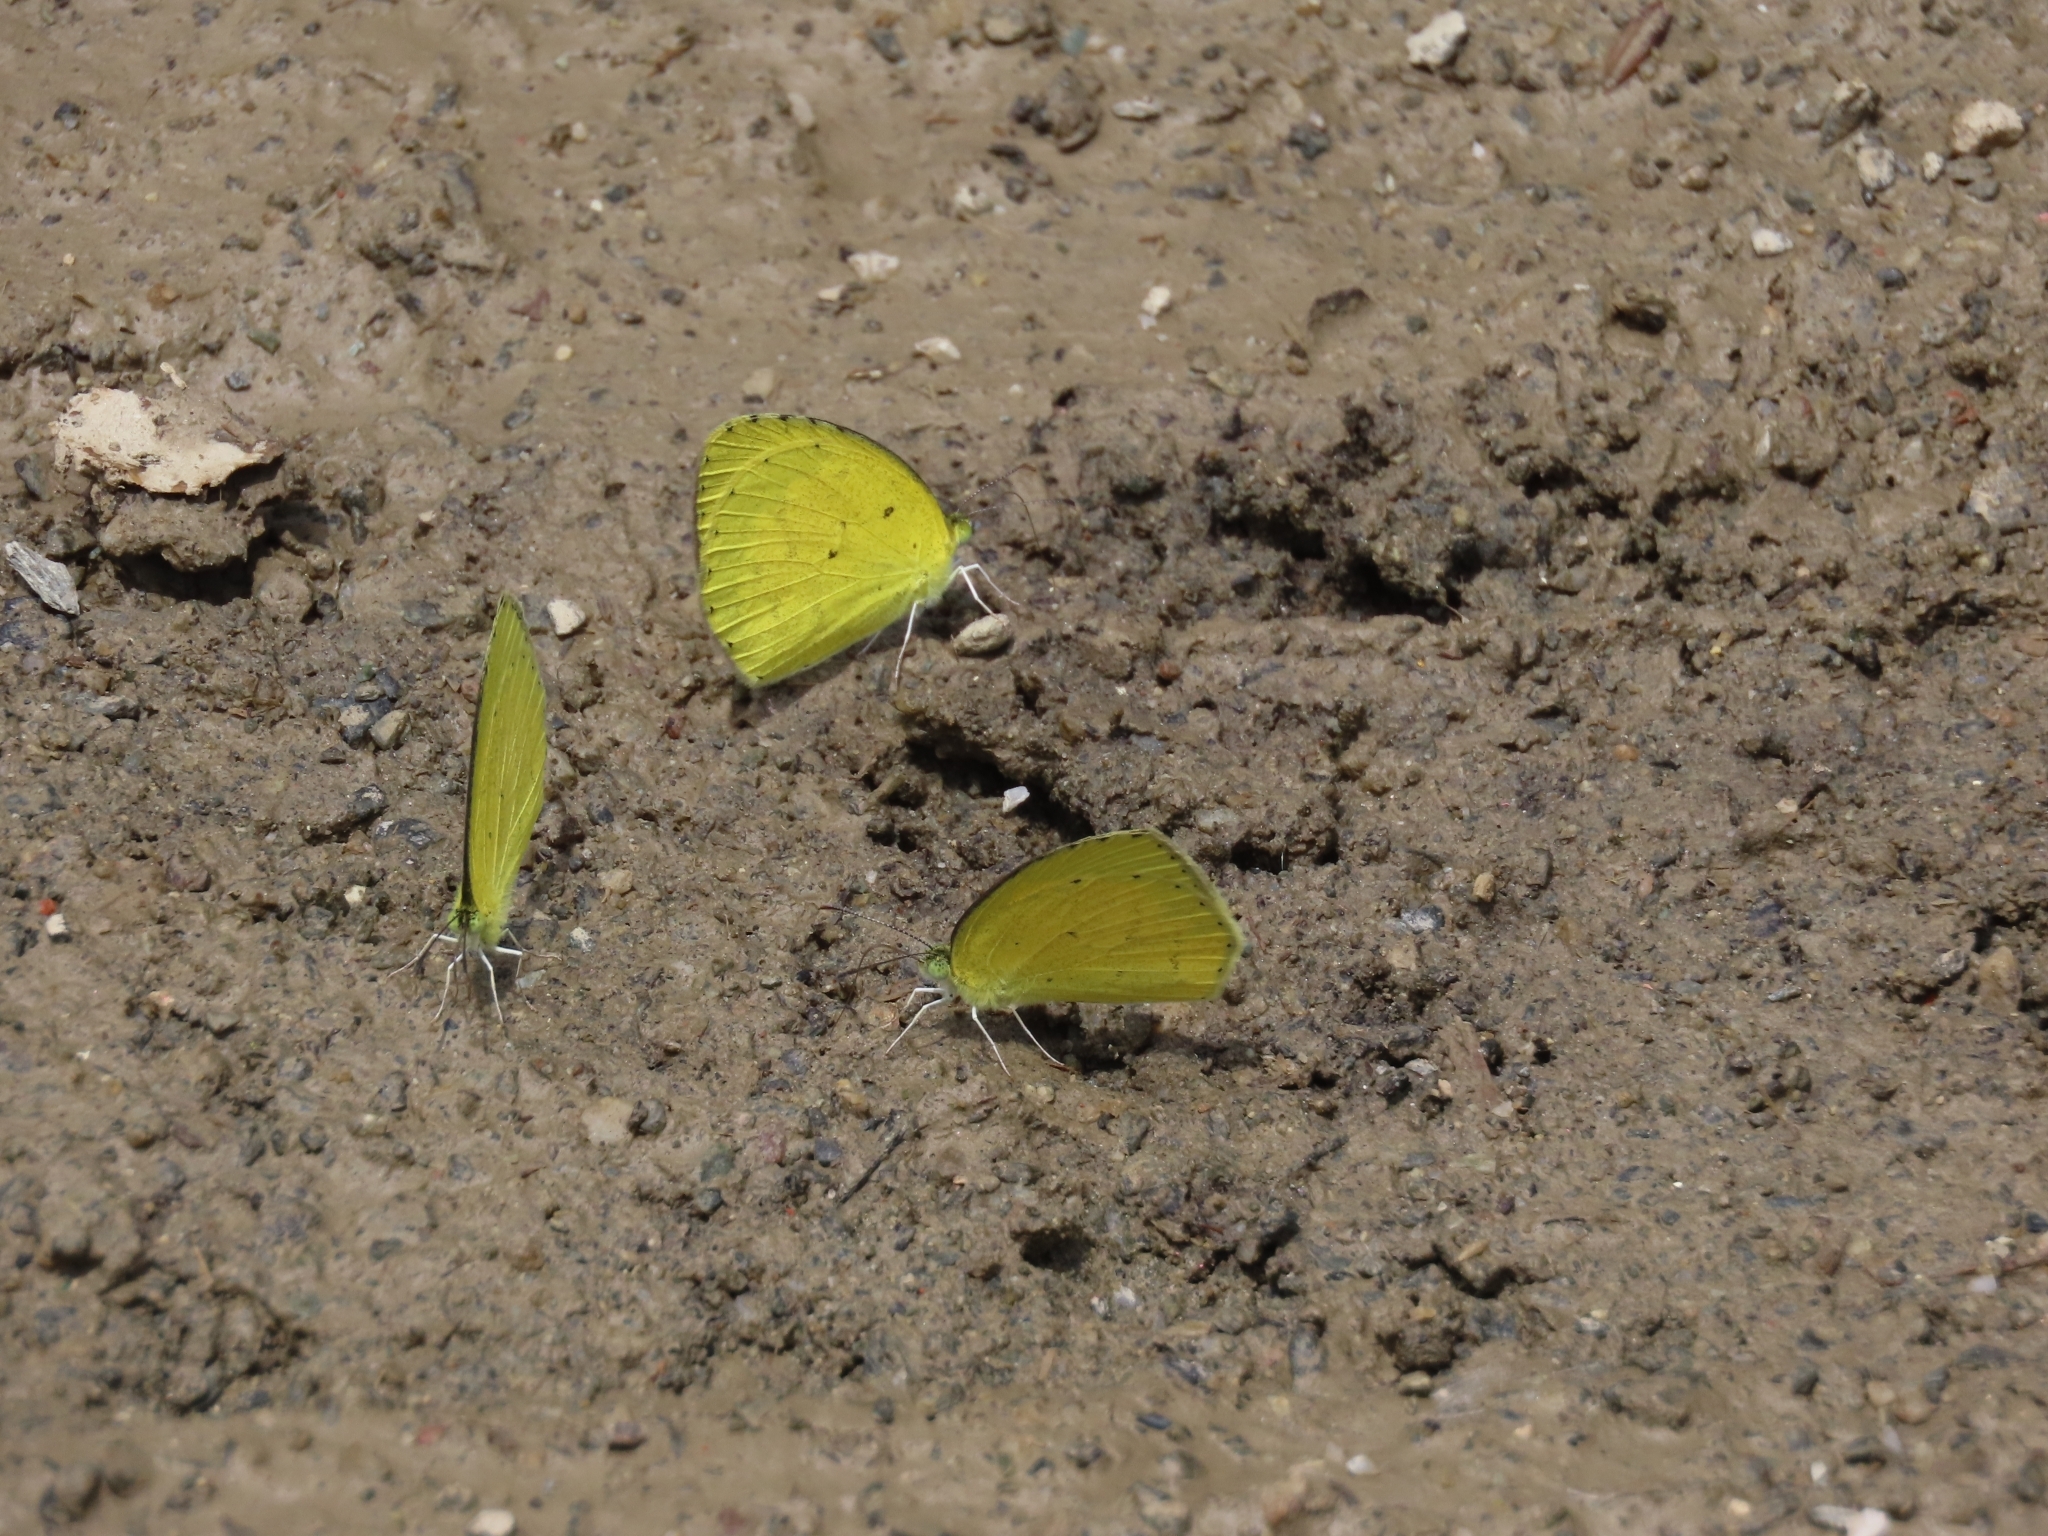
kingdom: Animalia
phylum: Arthropoda
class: Insecta
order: Lepidoptera
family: Pieridae
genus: Eurema
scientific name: Eurema brigitta
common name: Small grass yellow
